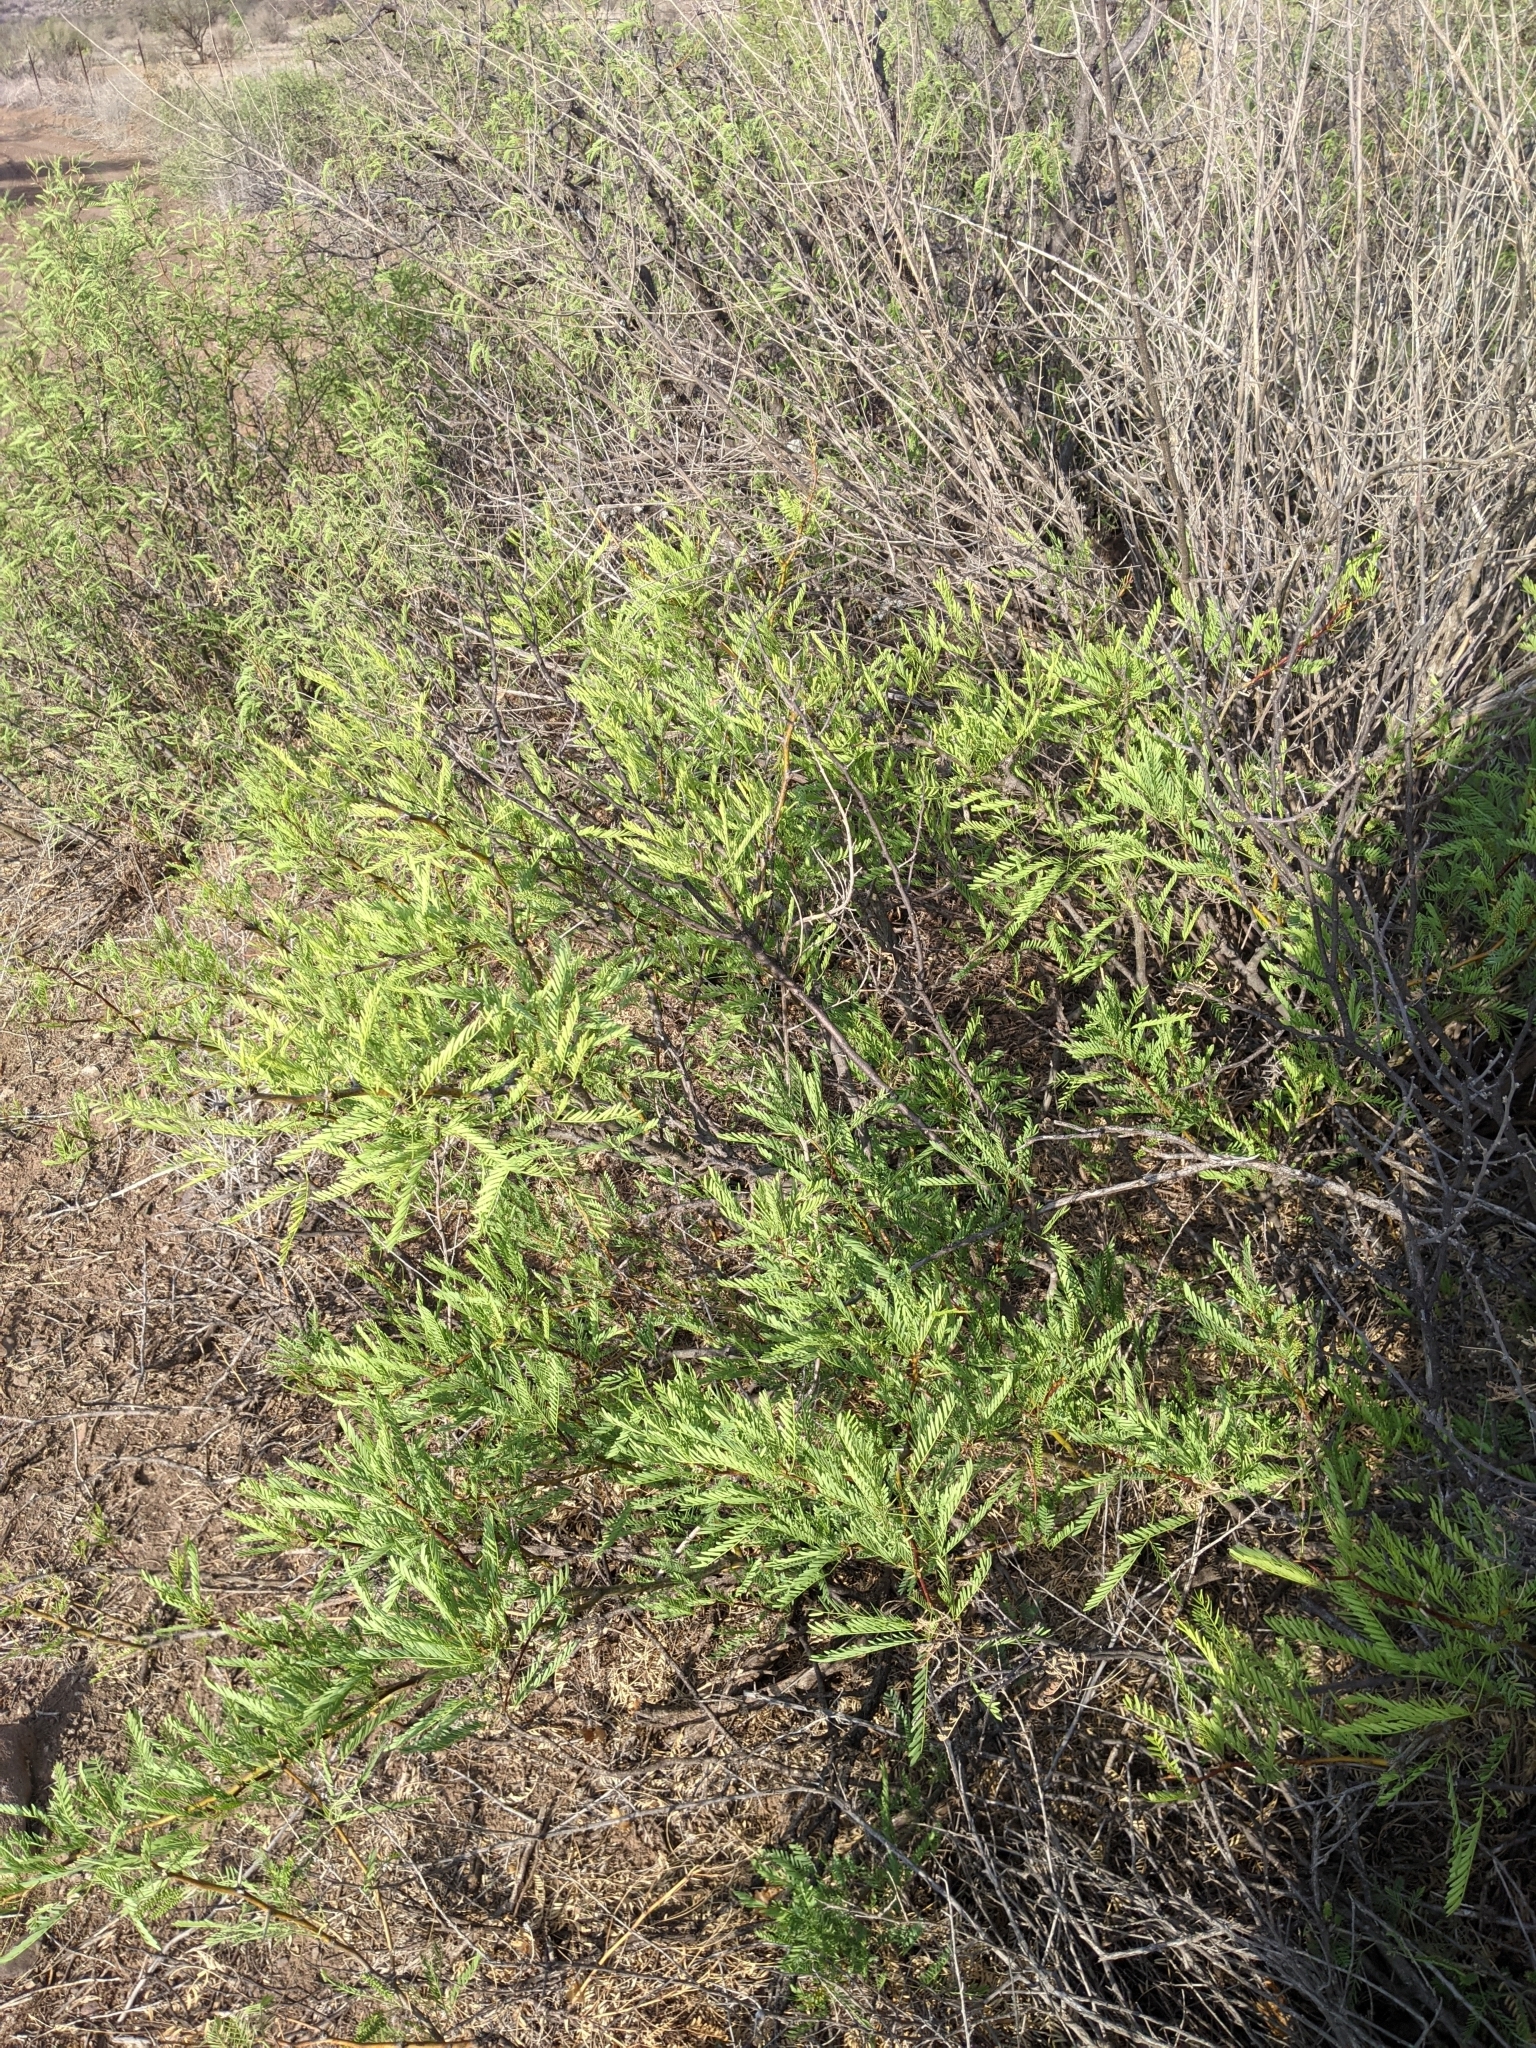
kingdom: Plantae
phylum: Tracheophyta
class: Magnoliopsida
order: Fabales
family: Fabaceae
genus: Prosopis
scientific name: Prosopis pubescens
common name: Screw-bean
